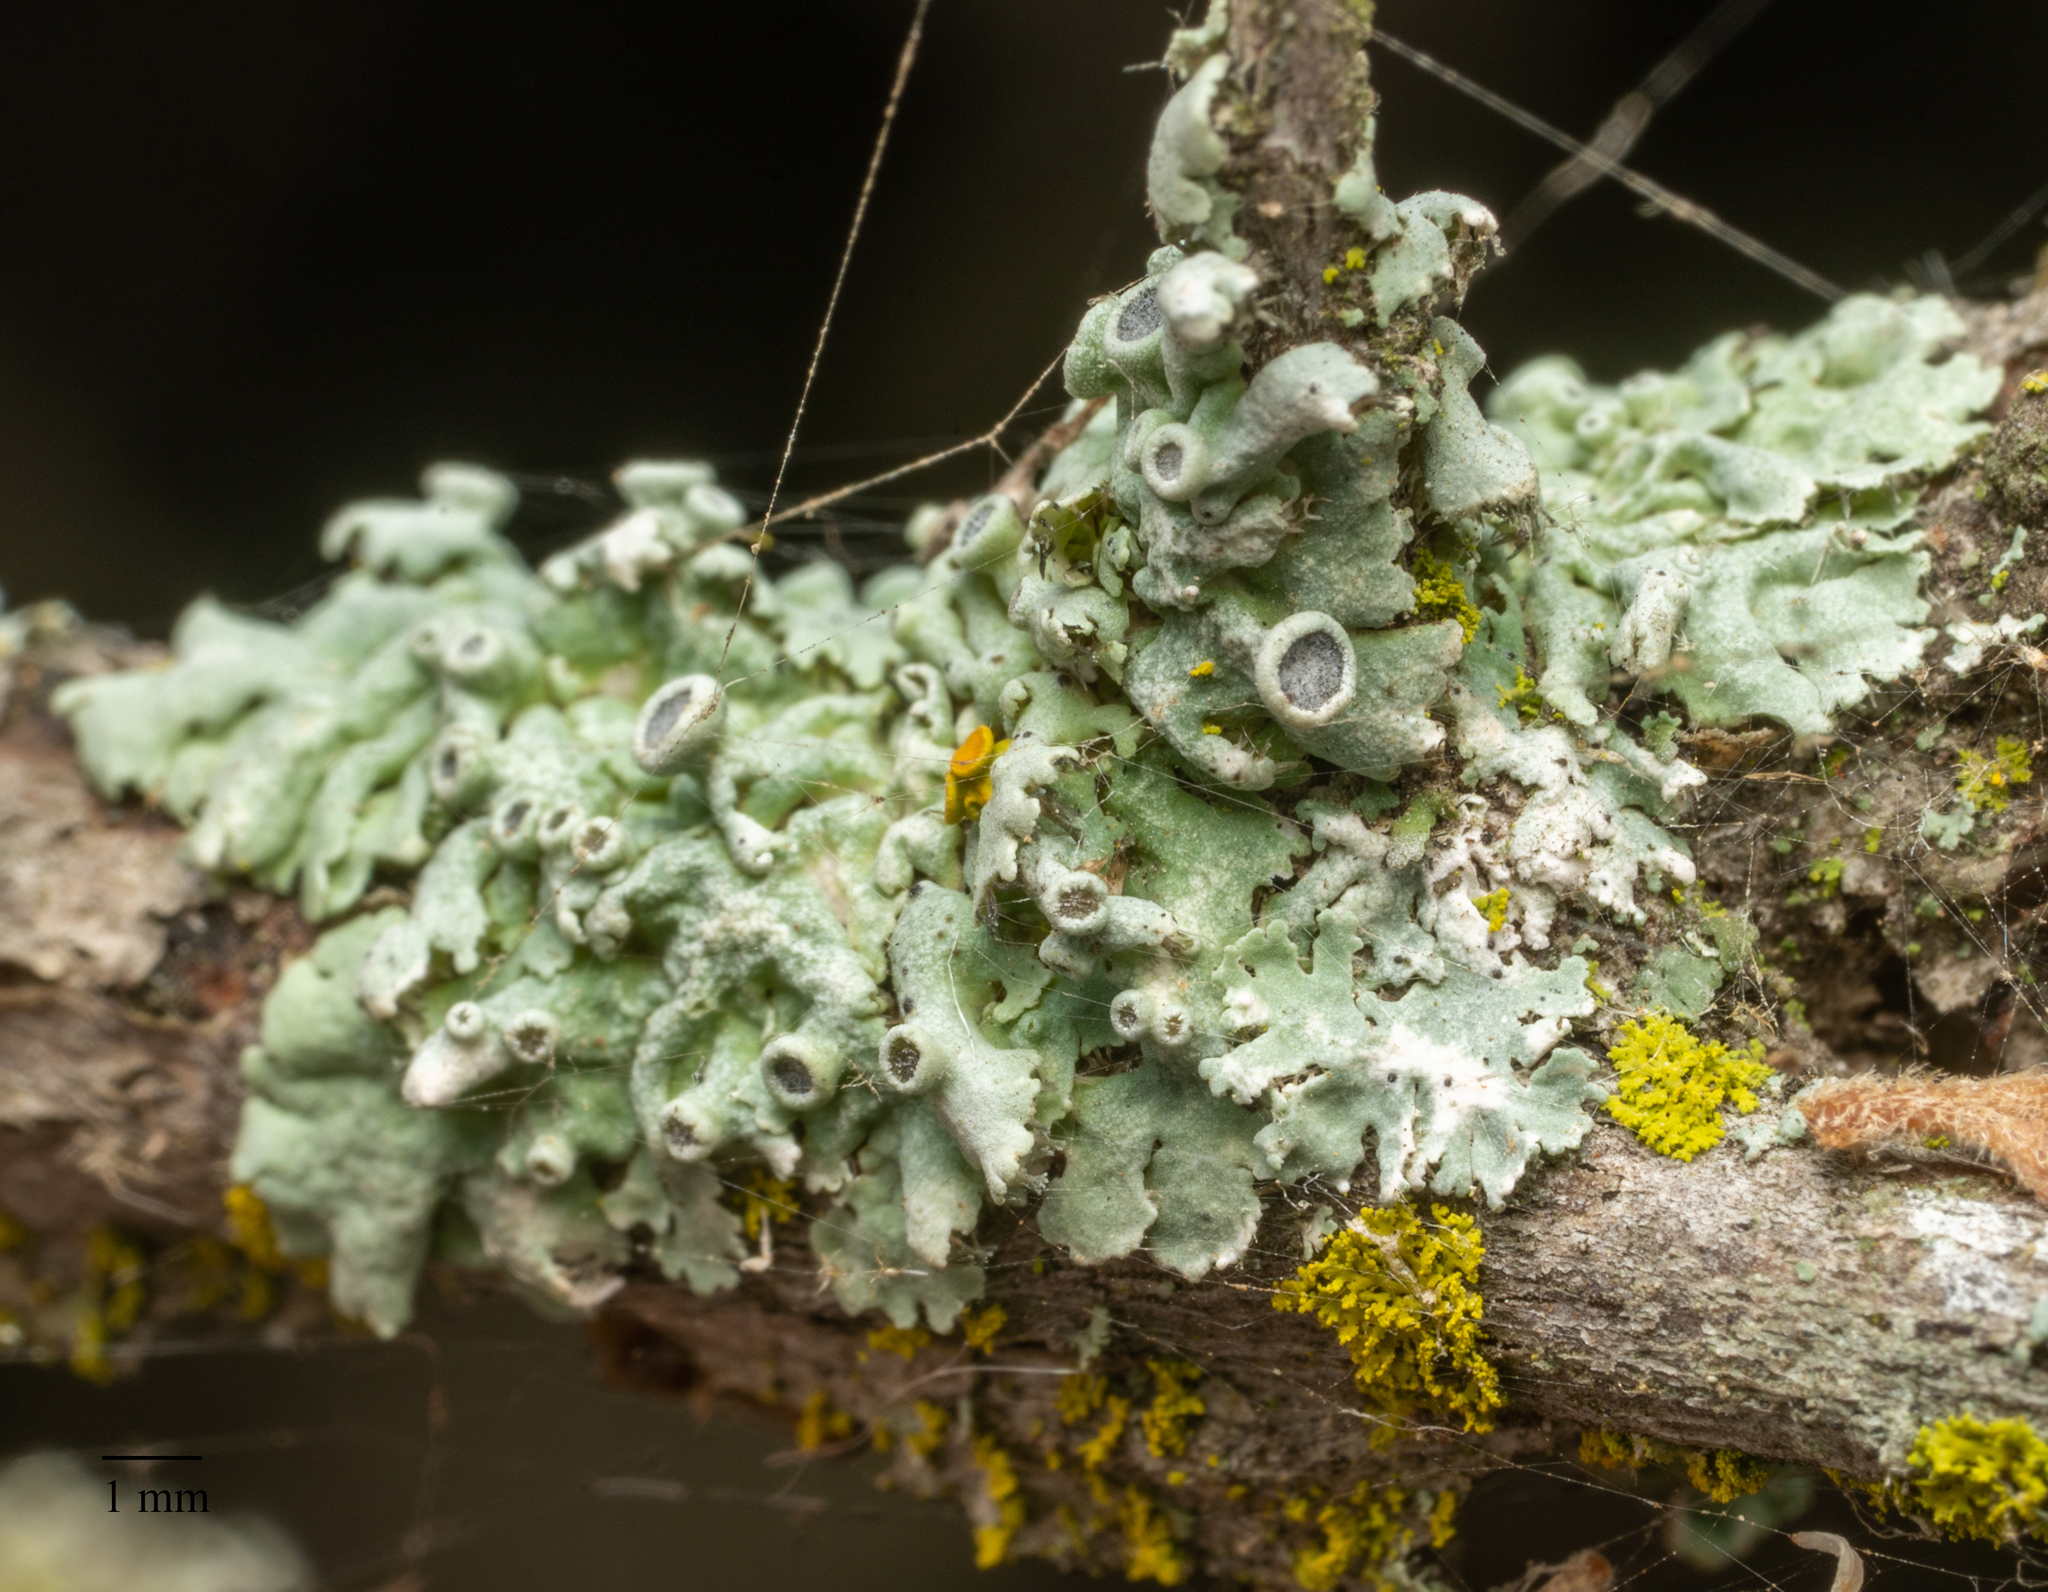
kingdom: Fungi
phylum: Ascomycota
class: Lecanoromycetes
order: Caliciales
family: Physciaceae
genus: Physcia
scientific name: Physcia biziana
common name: Frosted rosette lichen
